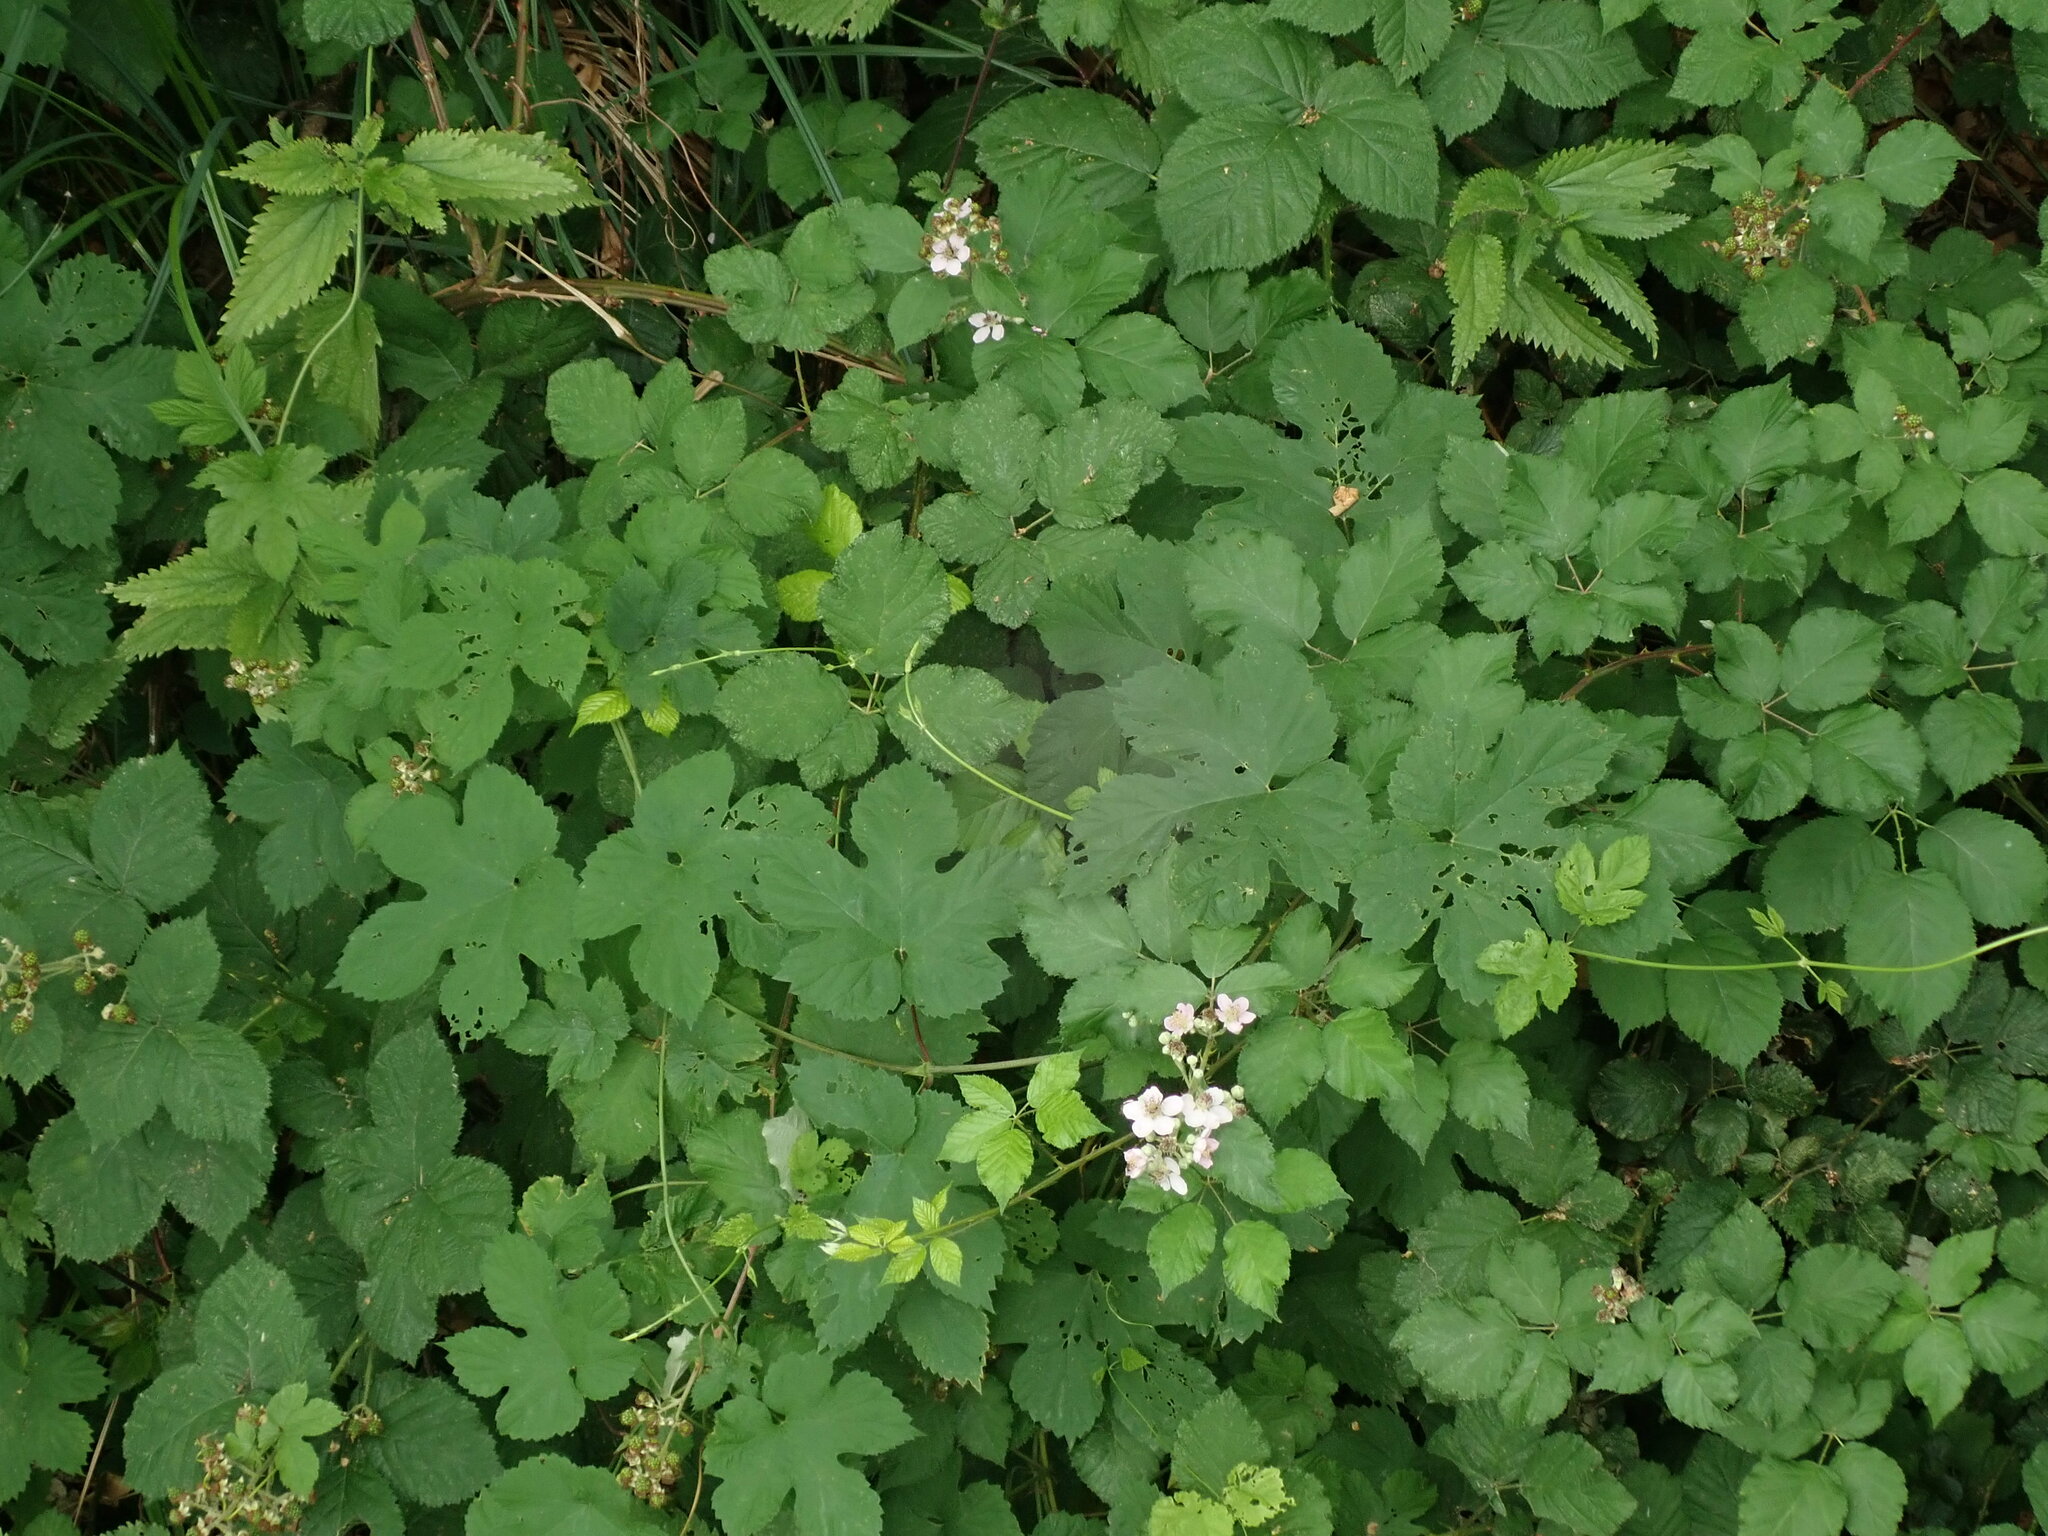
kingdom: Plantae
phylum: Tracheophyta
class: Magnoliopsida
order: Rosales
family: Cannabaceae
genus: Humulus
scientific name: Humulus lupulus
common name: Hop
